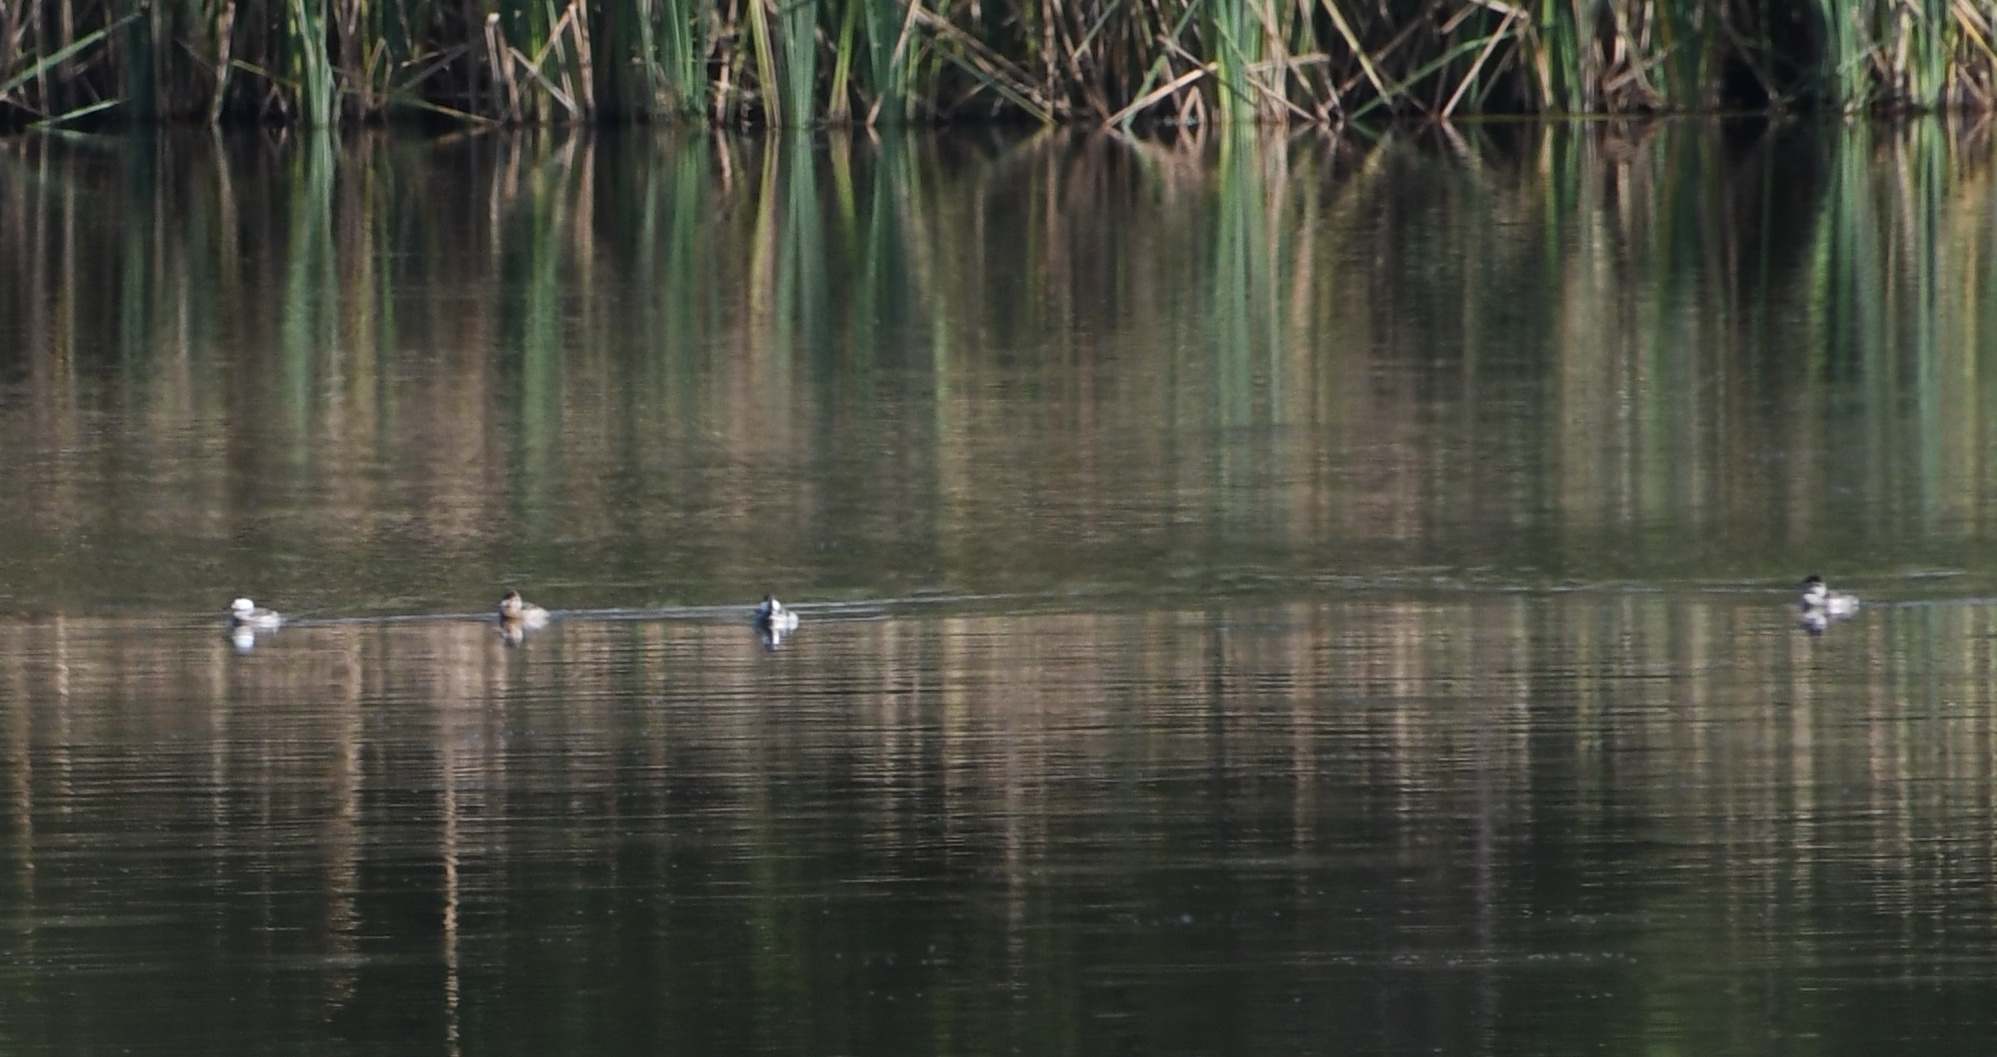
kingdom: Animalia
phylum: Chordata
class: Aves
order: Anseriformes
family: Anatidae
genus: Oxyura
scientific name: Oxyura jamaicensis
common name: Ruddy duck
